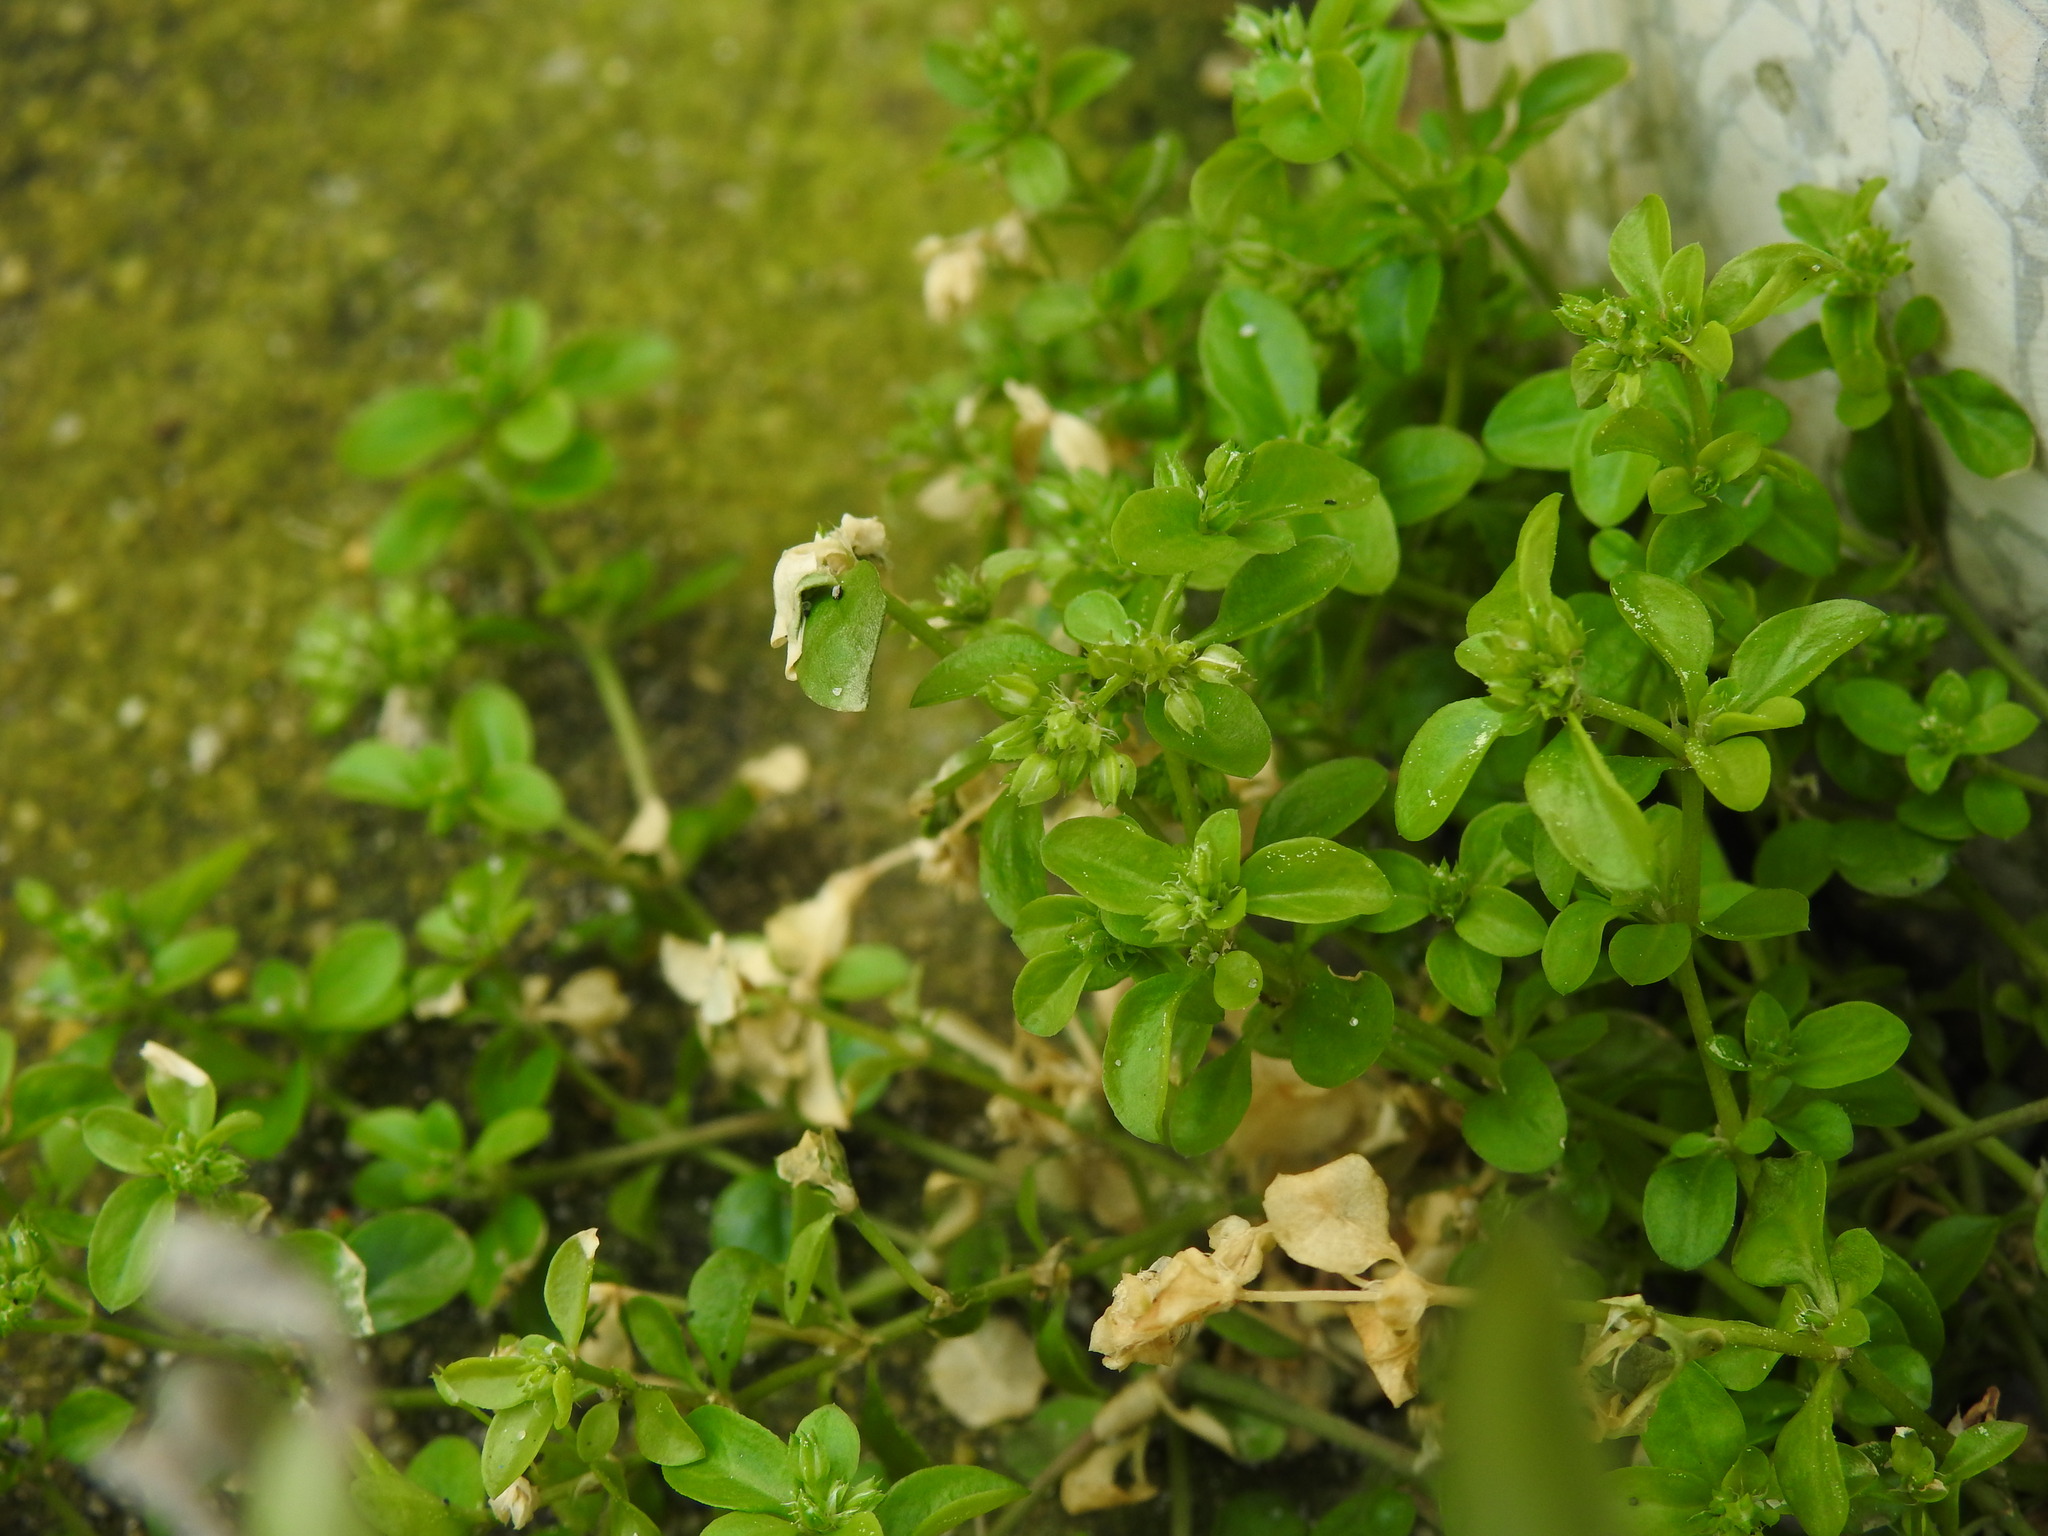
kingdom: Plantae
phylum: Tracheophyta
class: Magnoliopsida
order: Caryophyllales
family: Caryophyllaceae
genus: Polycarpon
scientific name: Polycarpon tetraphyllum
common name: Four-leaved all-seed
